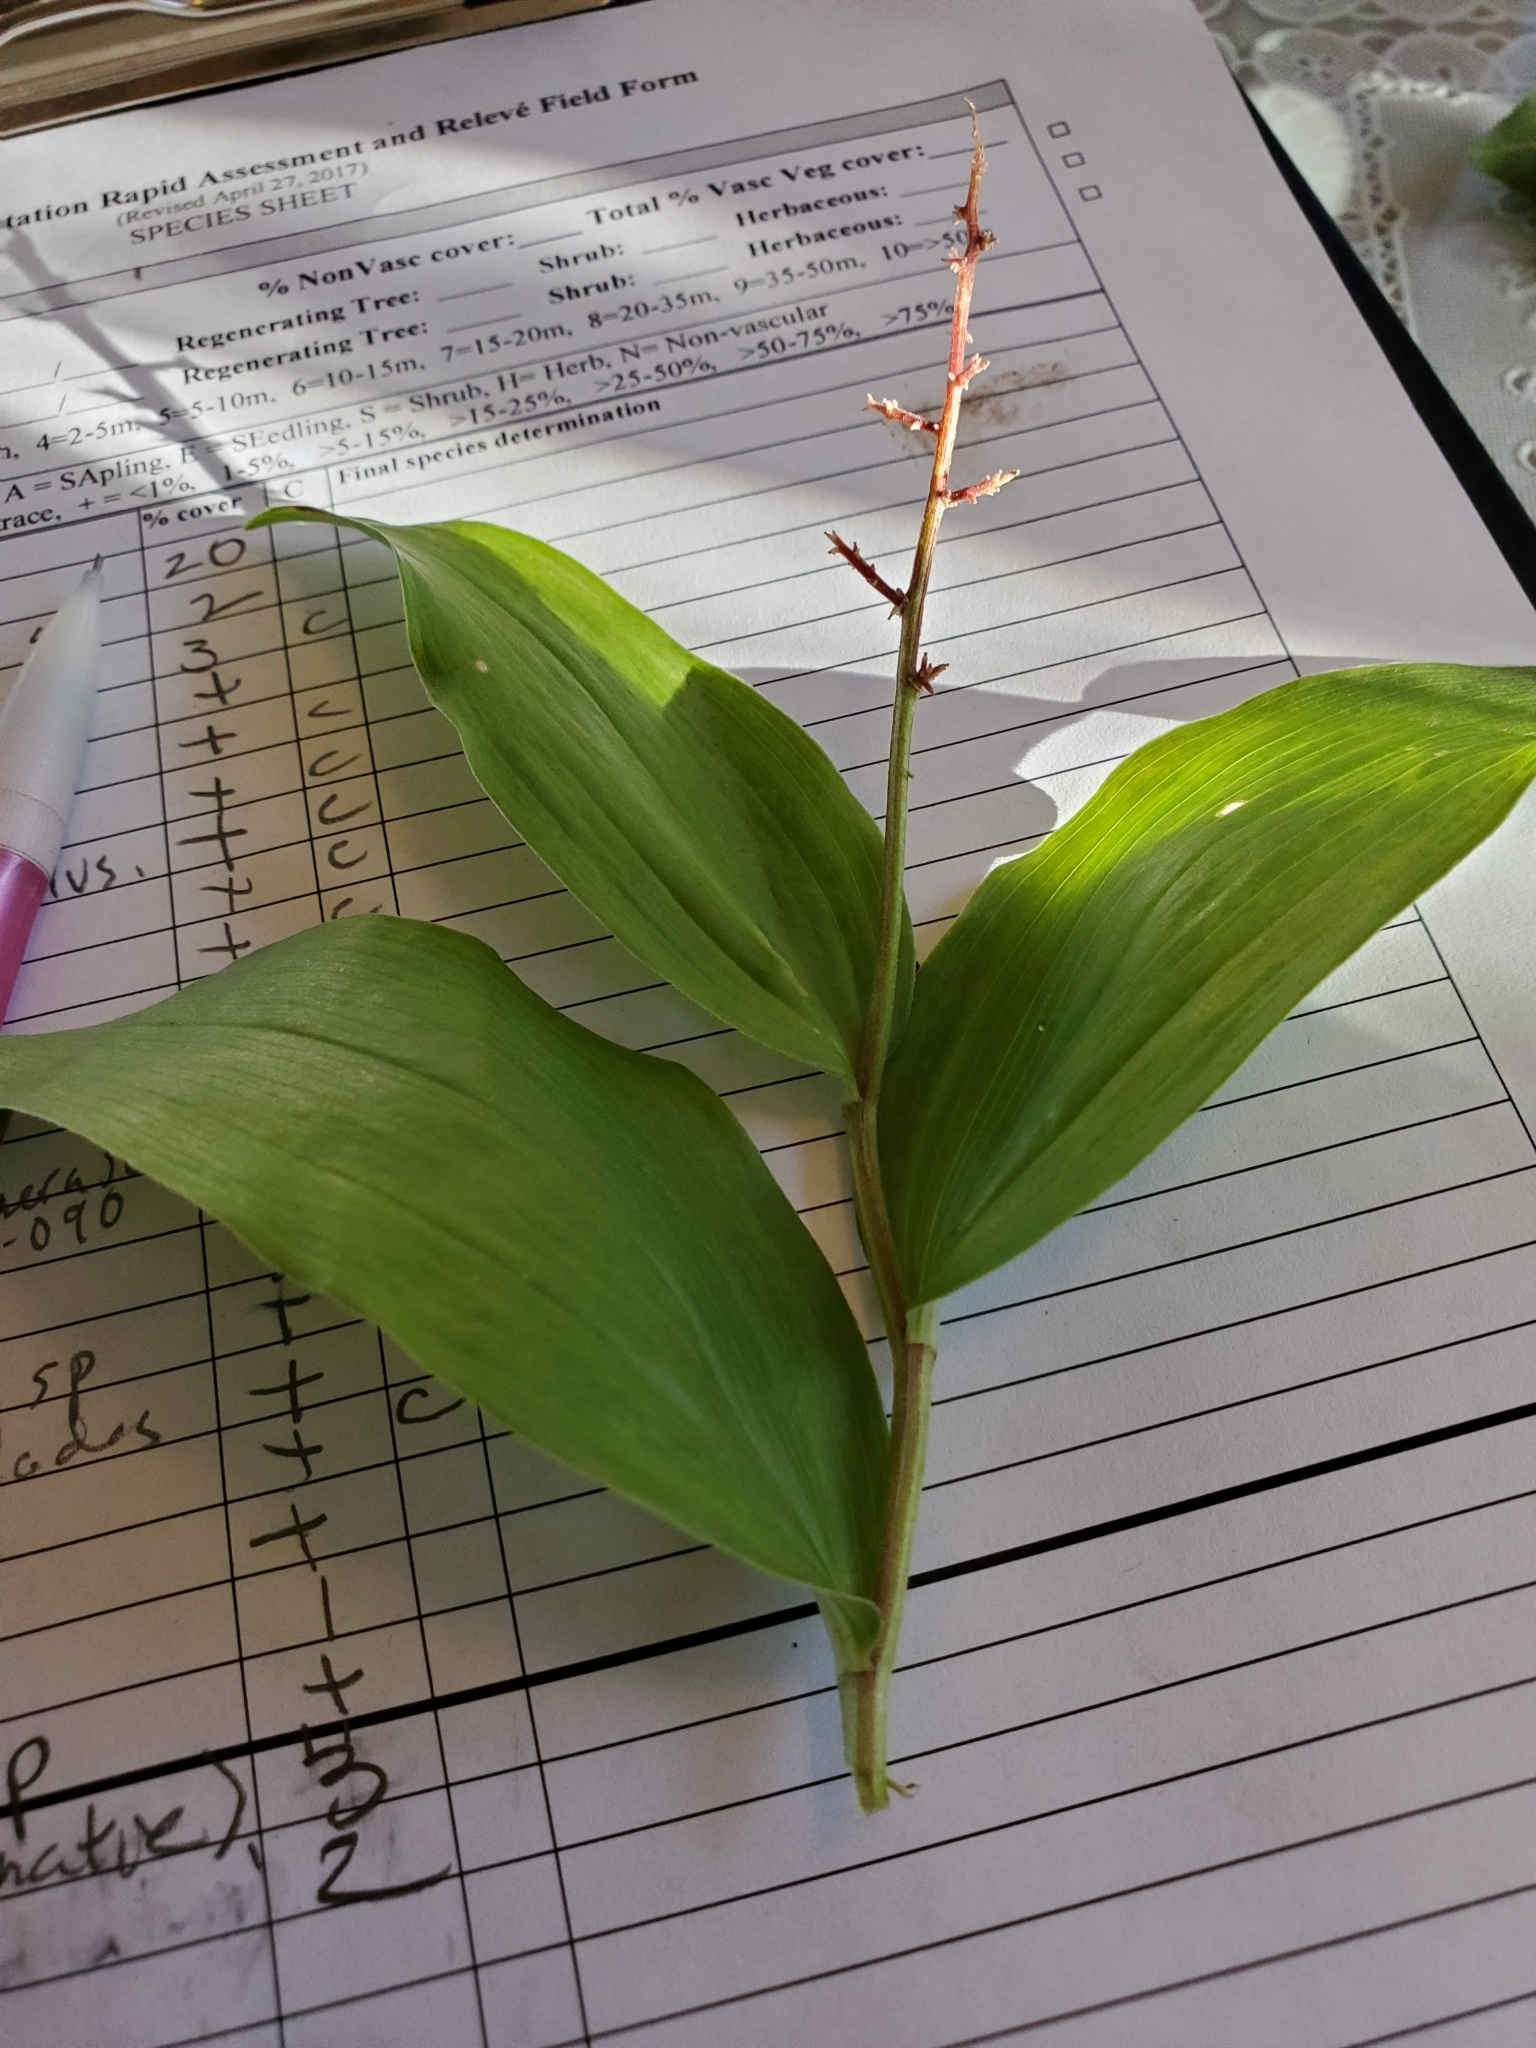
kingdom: Plantae
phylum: Tracheophyta
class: Liliopsida
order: Asparagales
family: Asparagaceae
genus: Maianthemum
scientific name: Maianthemum racemosum
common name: False spikenard
